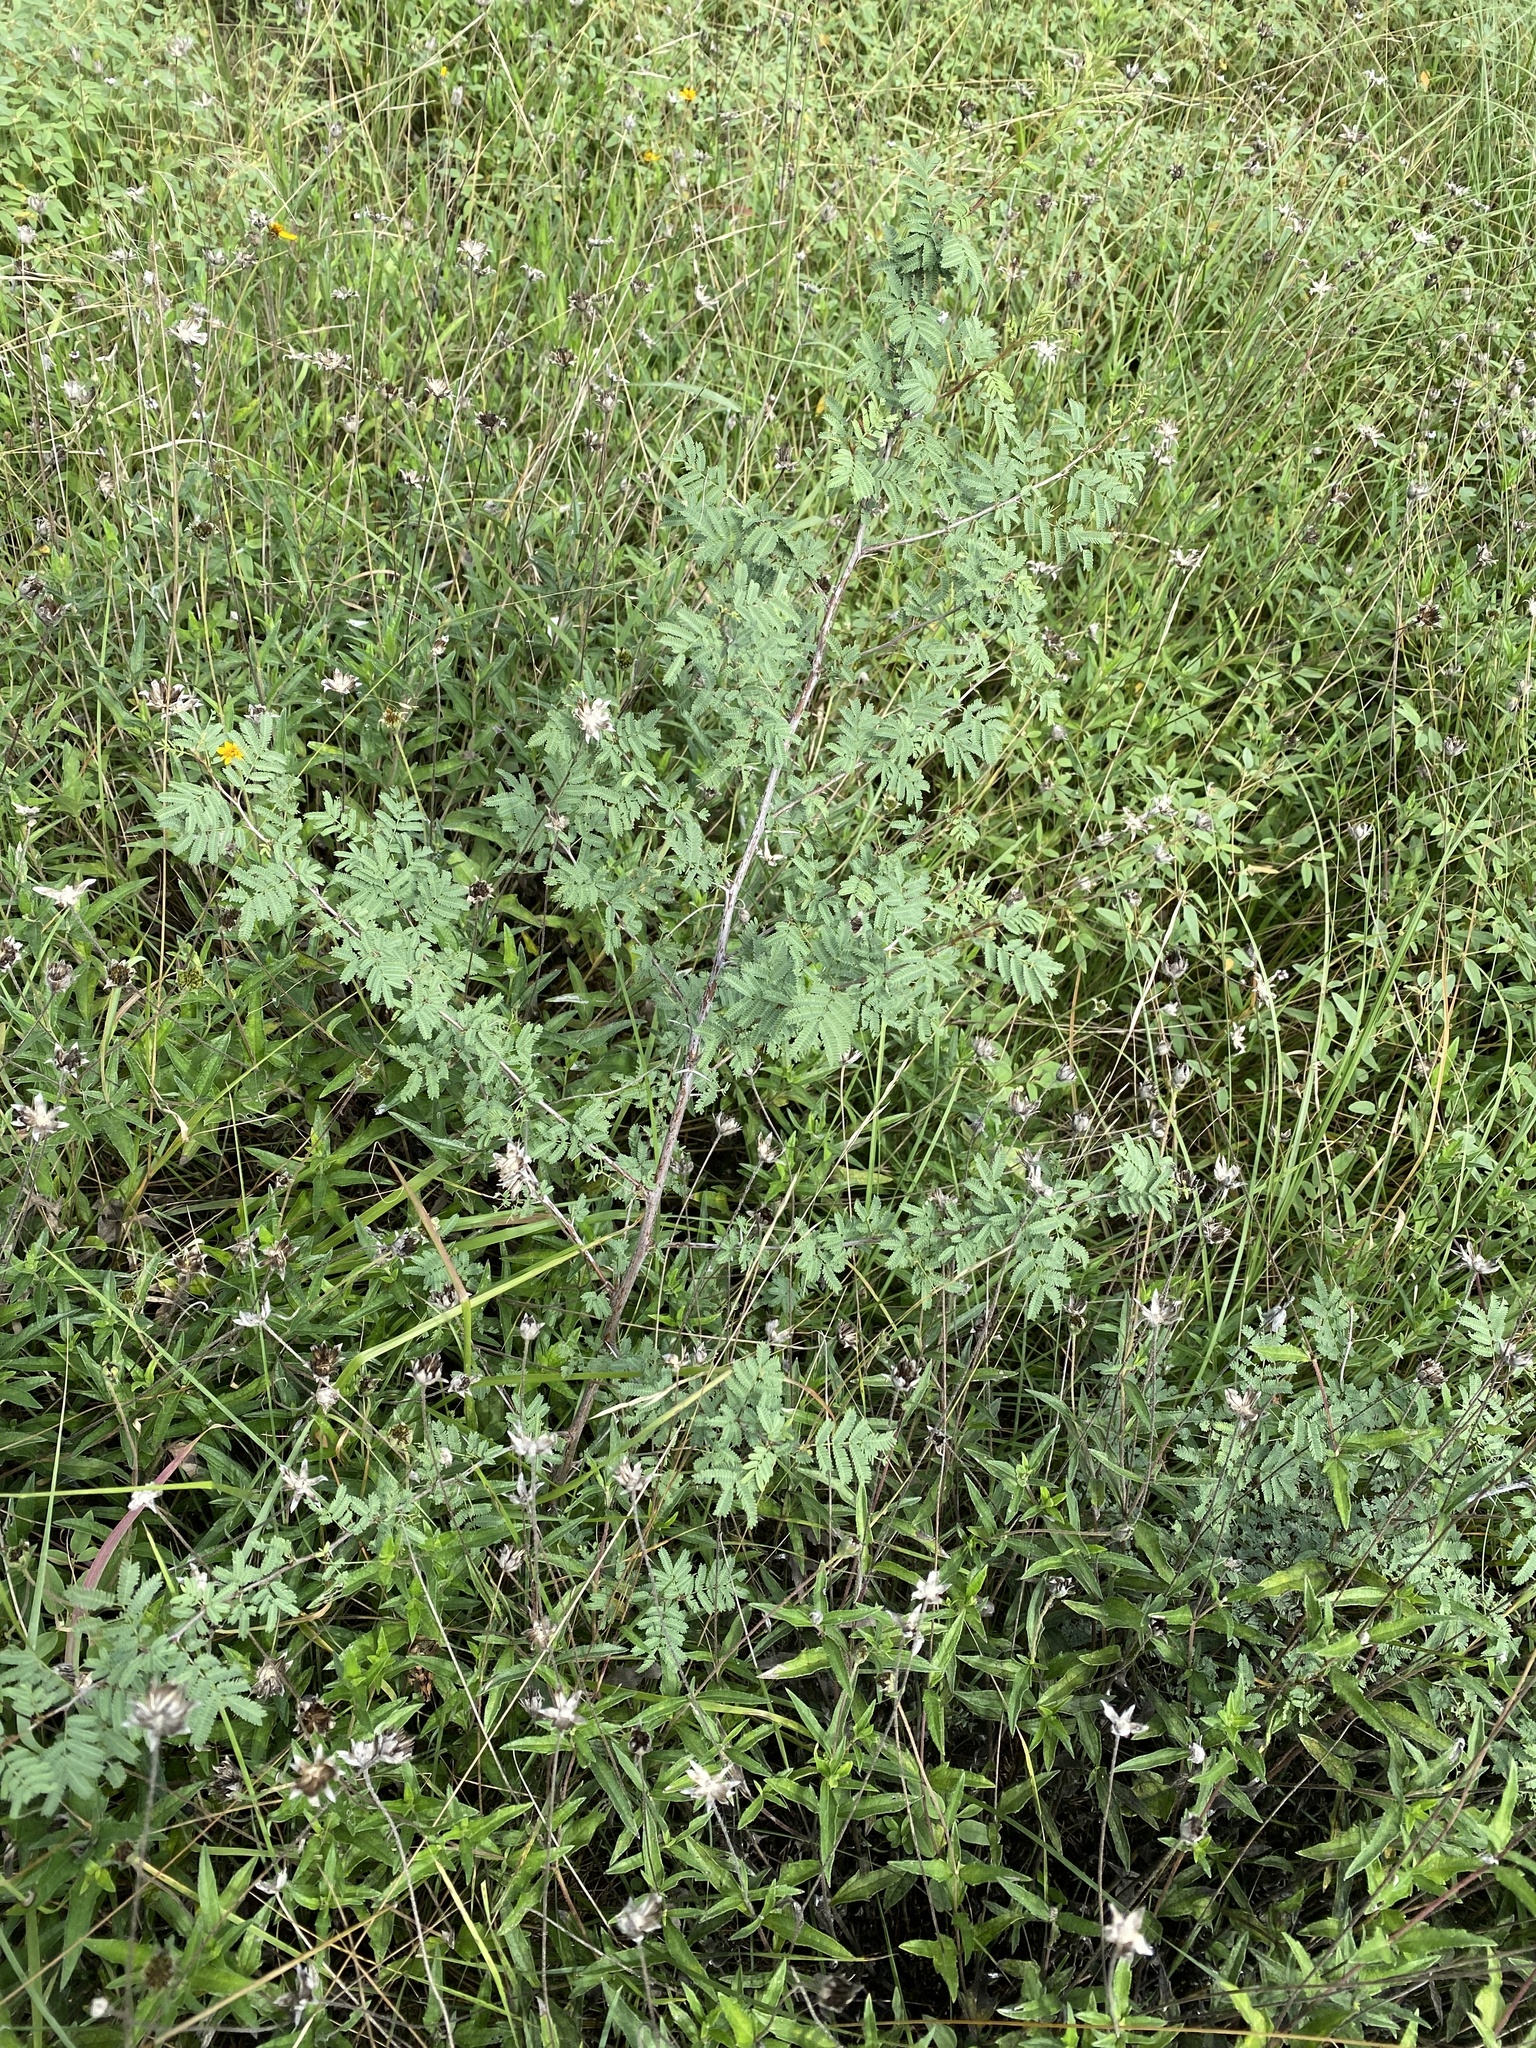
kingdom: Plantae
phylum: Tracheophyta
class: Magnoliopsida
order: Fabales
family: Fabaceae
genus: Vachellia
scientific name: Vachellia farnesiana
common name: Sweet acacia
